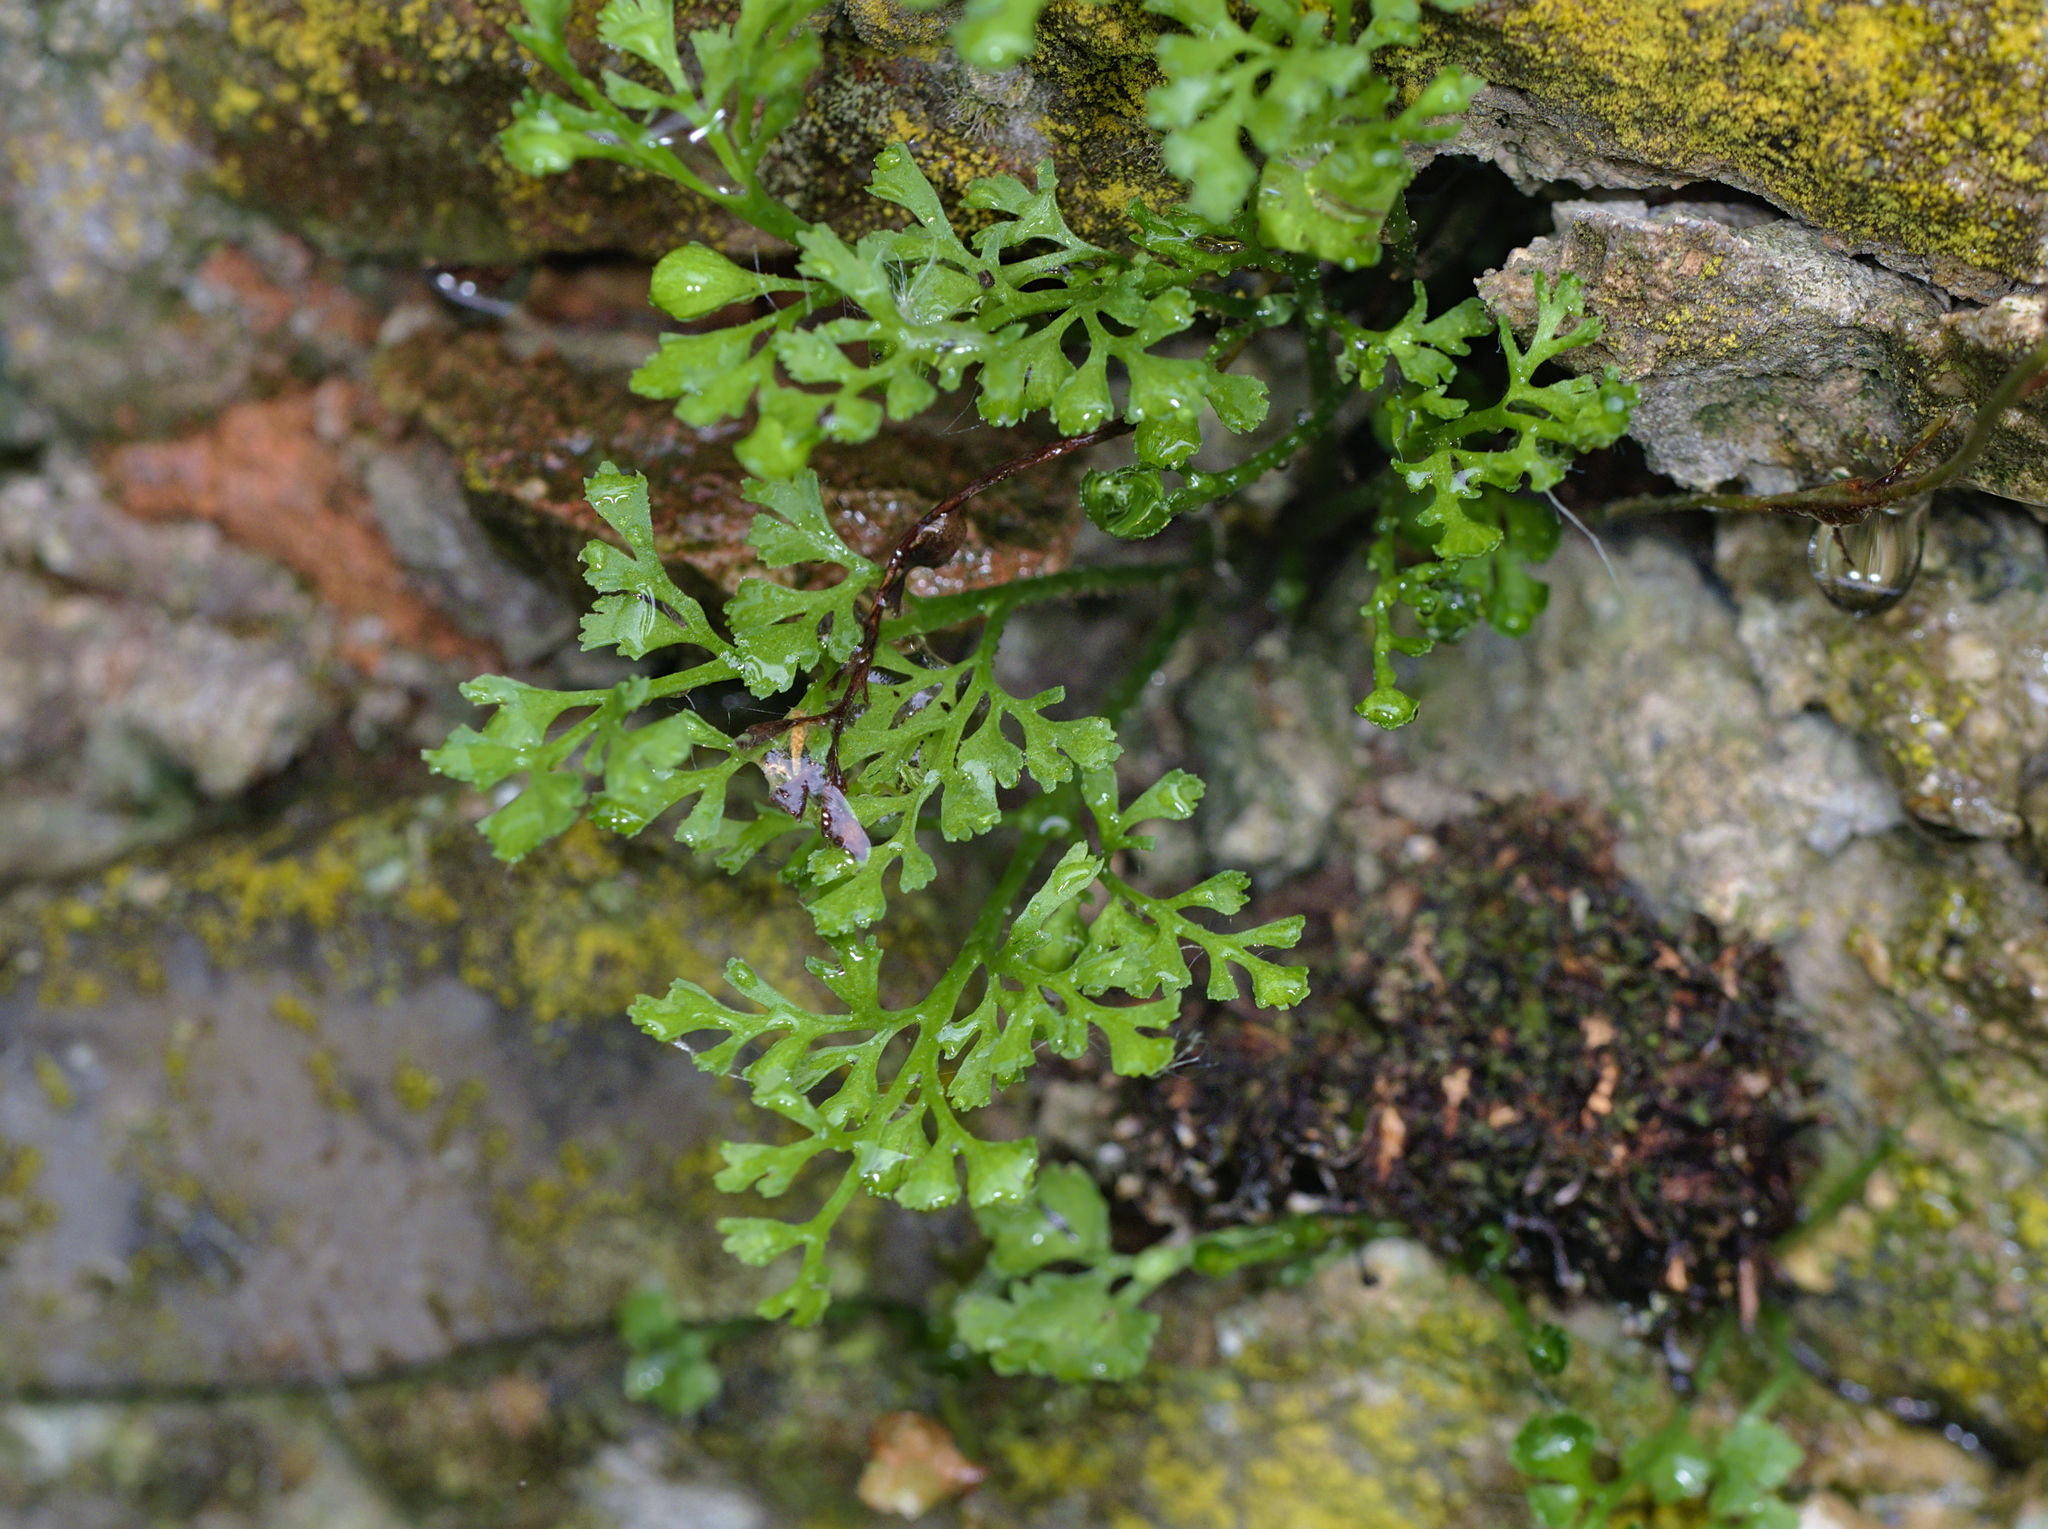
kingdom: Plantae
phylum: Tracheophyta
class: Polypodiopsida
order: Polypodiales
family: Aspleniaceae
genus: Asplenium
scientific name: Asplenium ruta-muraria
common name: Wall-rue
